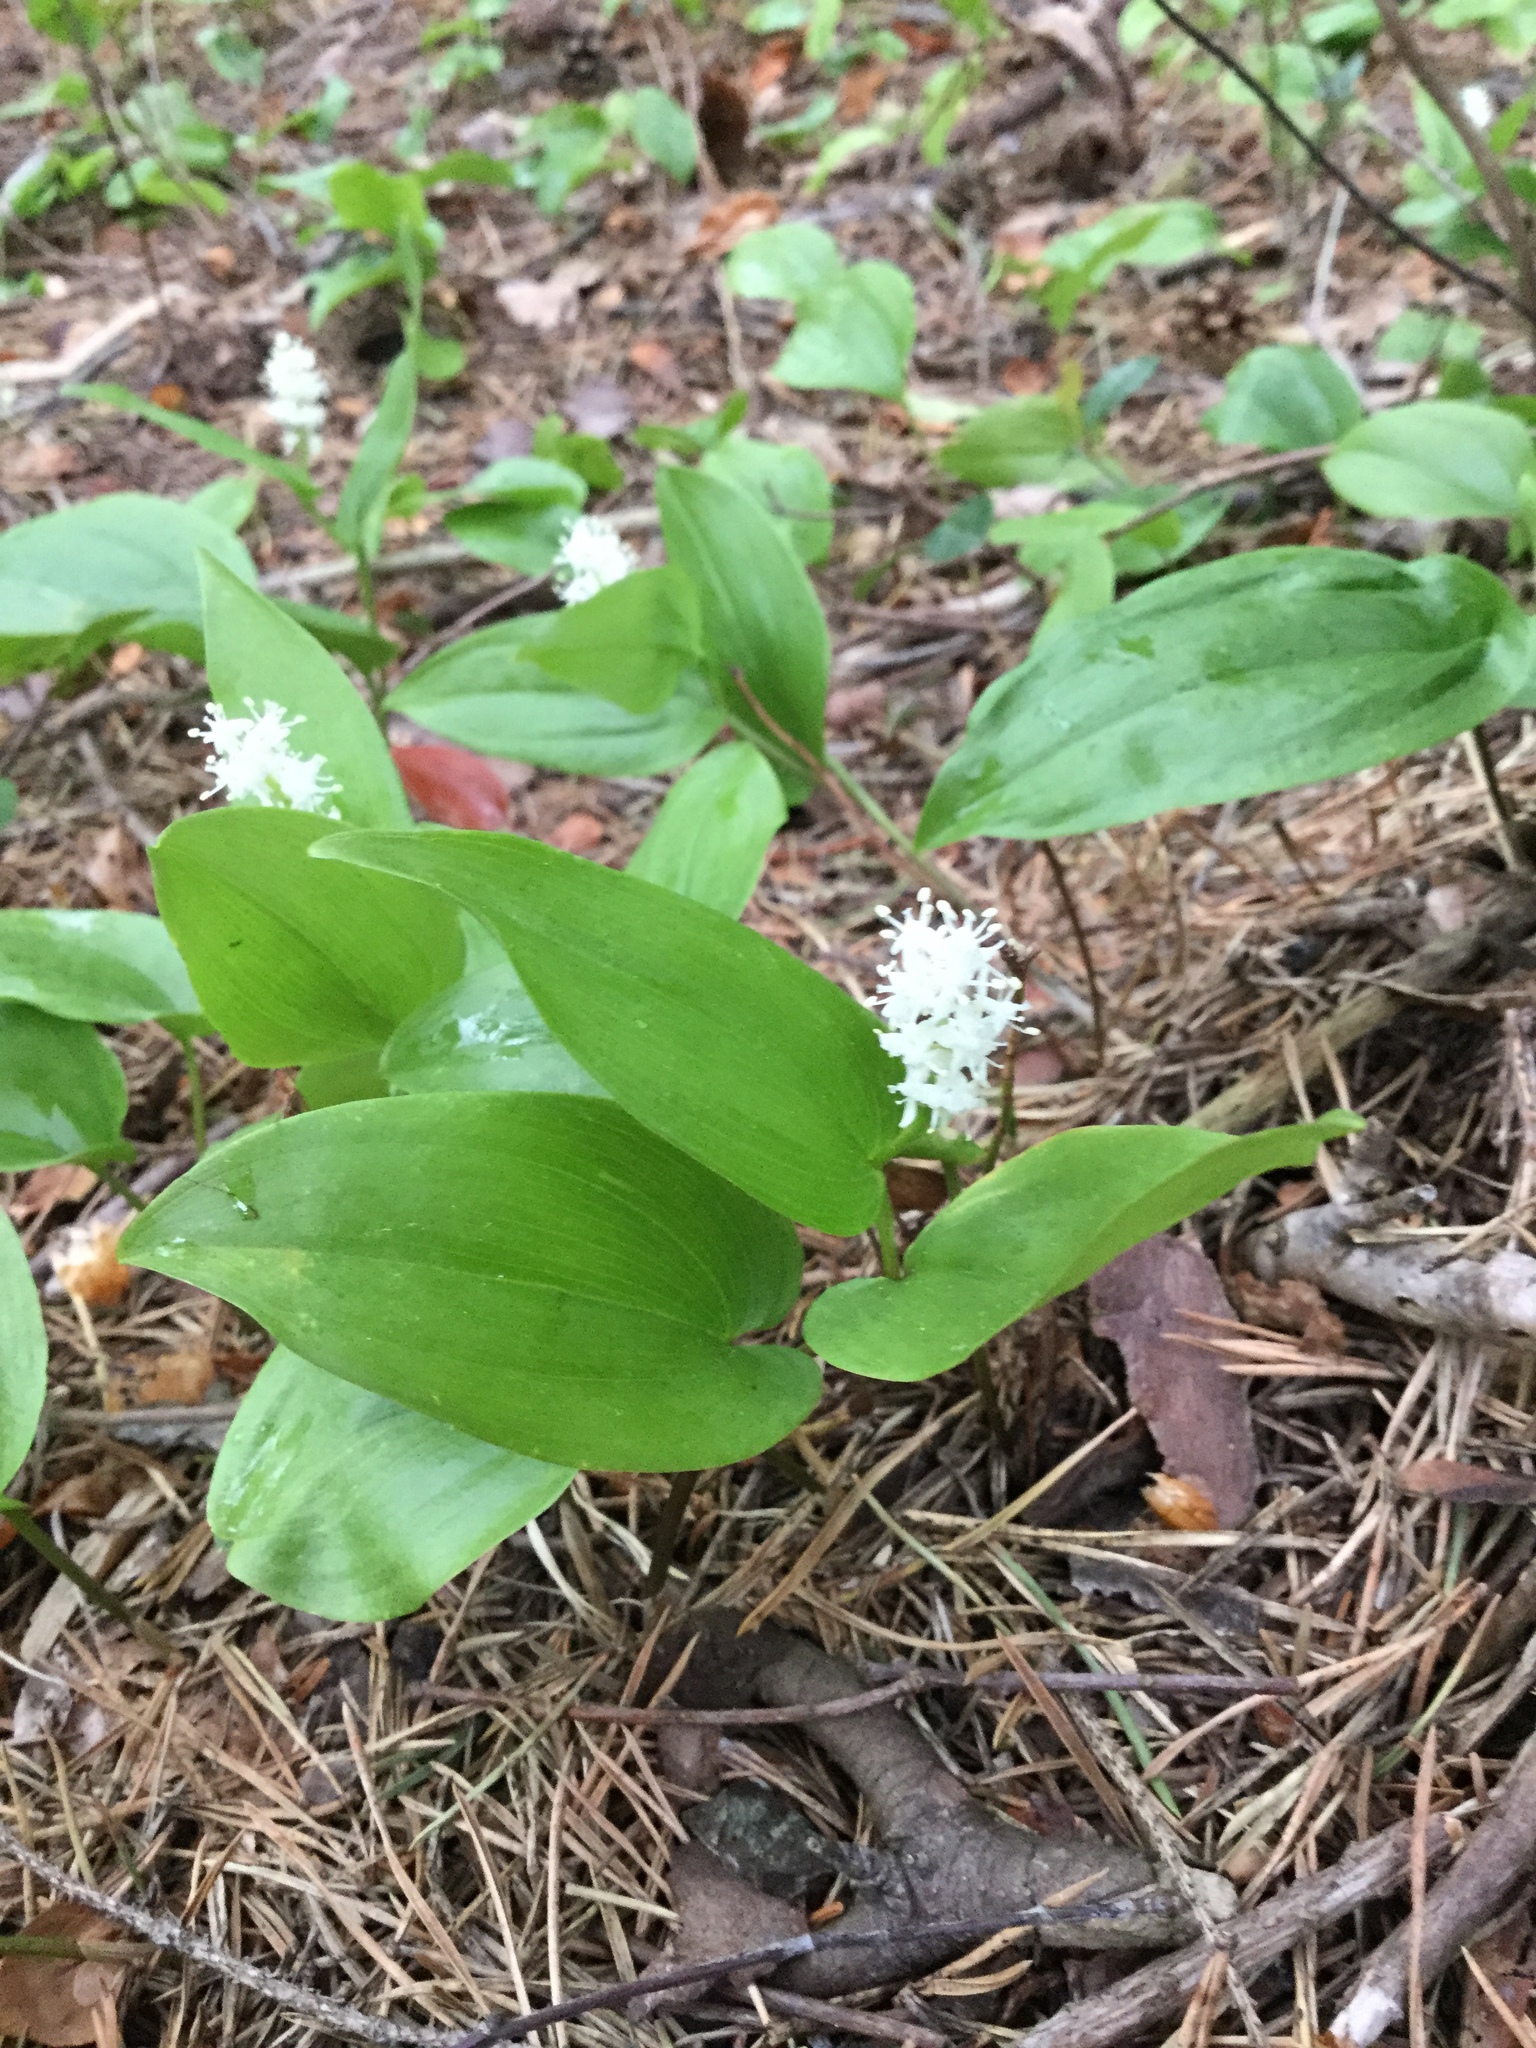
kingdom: Plantae
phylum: Tracheophyta
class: Liliopsida
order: Asparagales
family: Asparagaceae
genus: Maianthemum
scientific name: Maianthemum canadense
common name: False lily-of-the-valley
